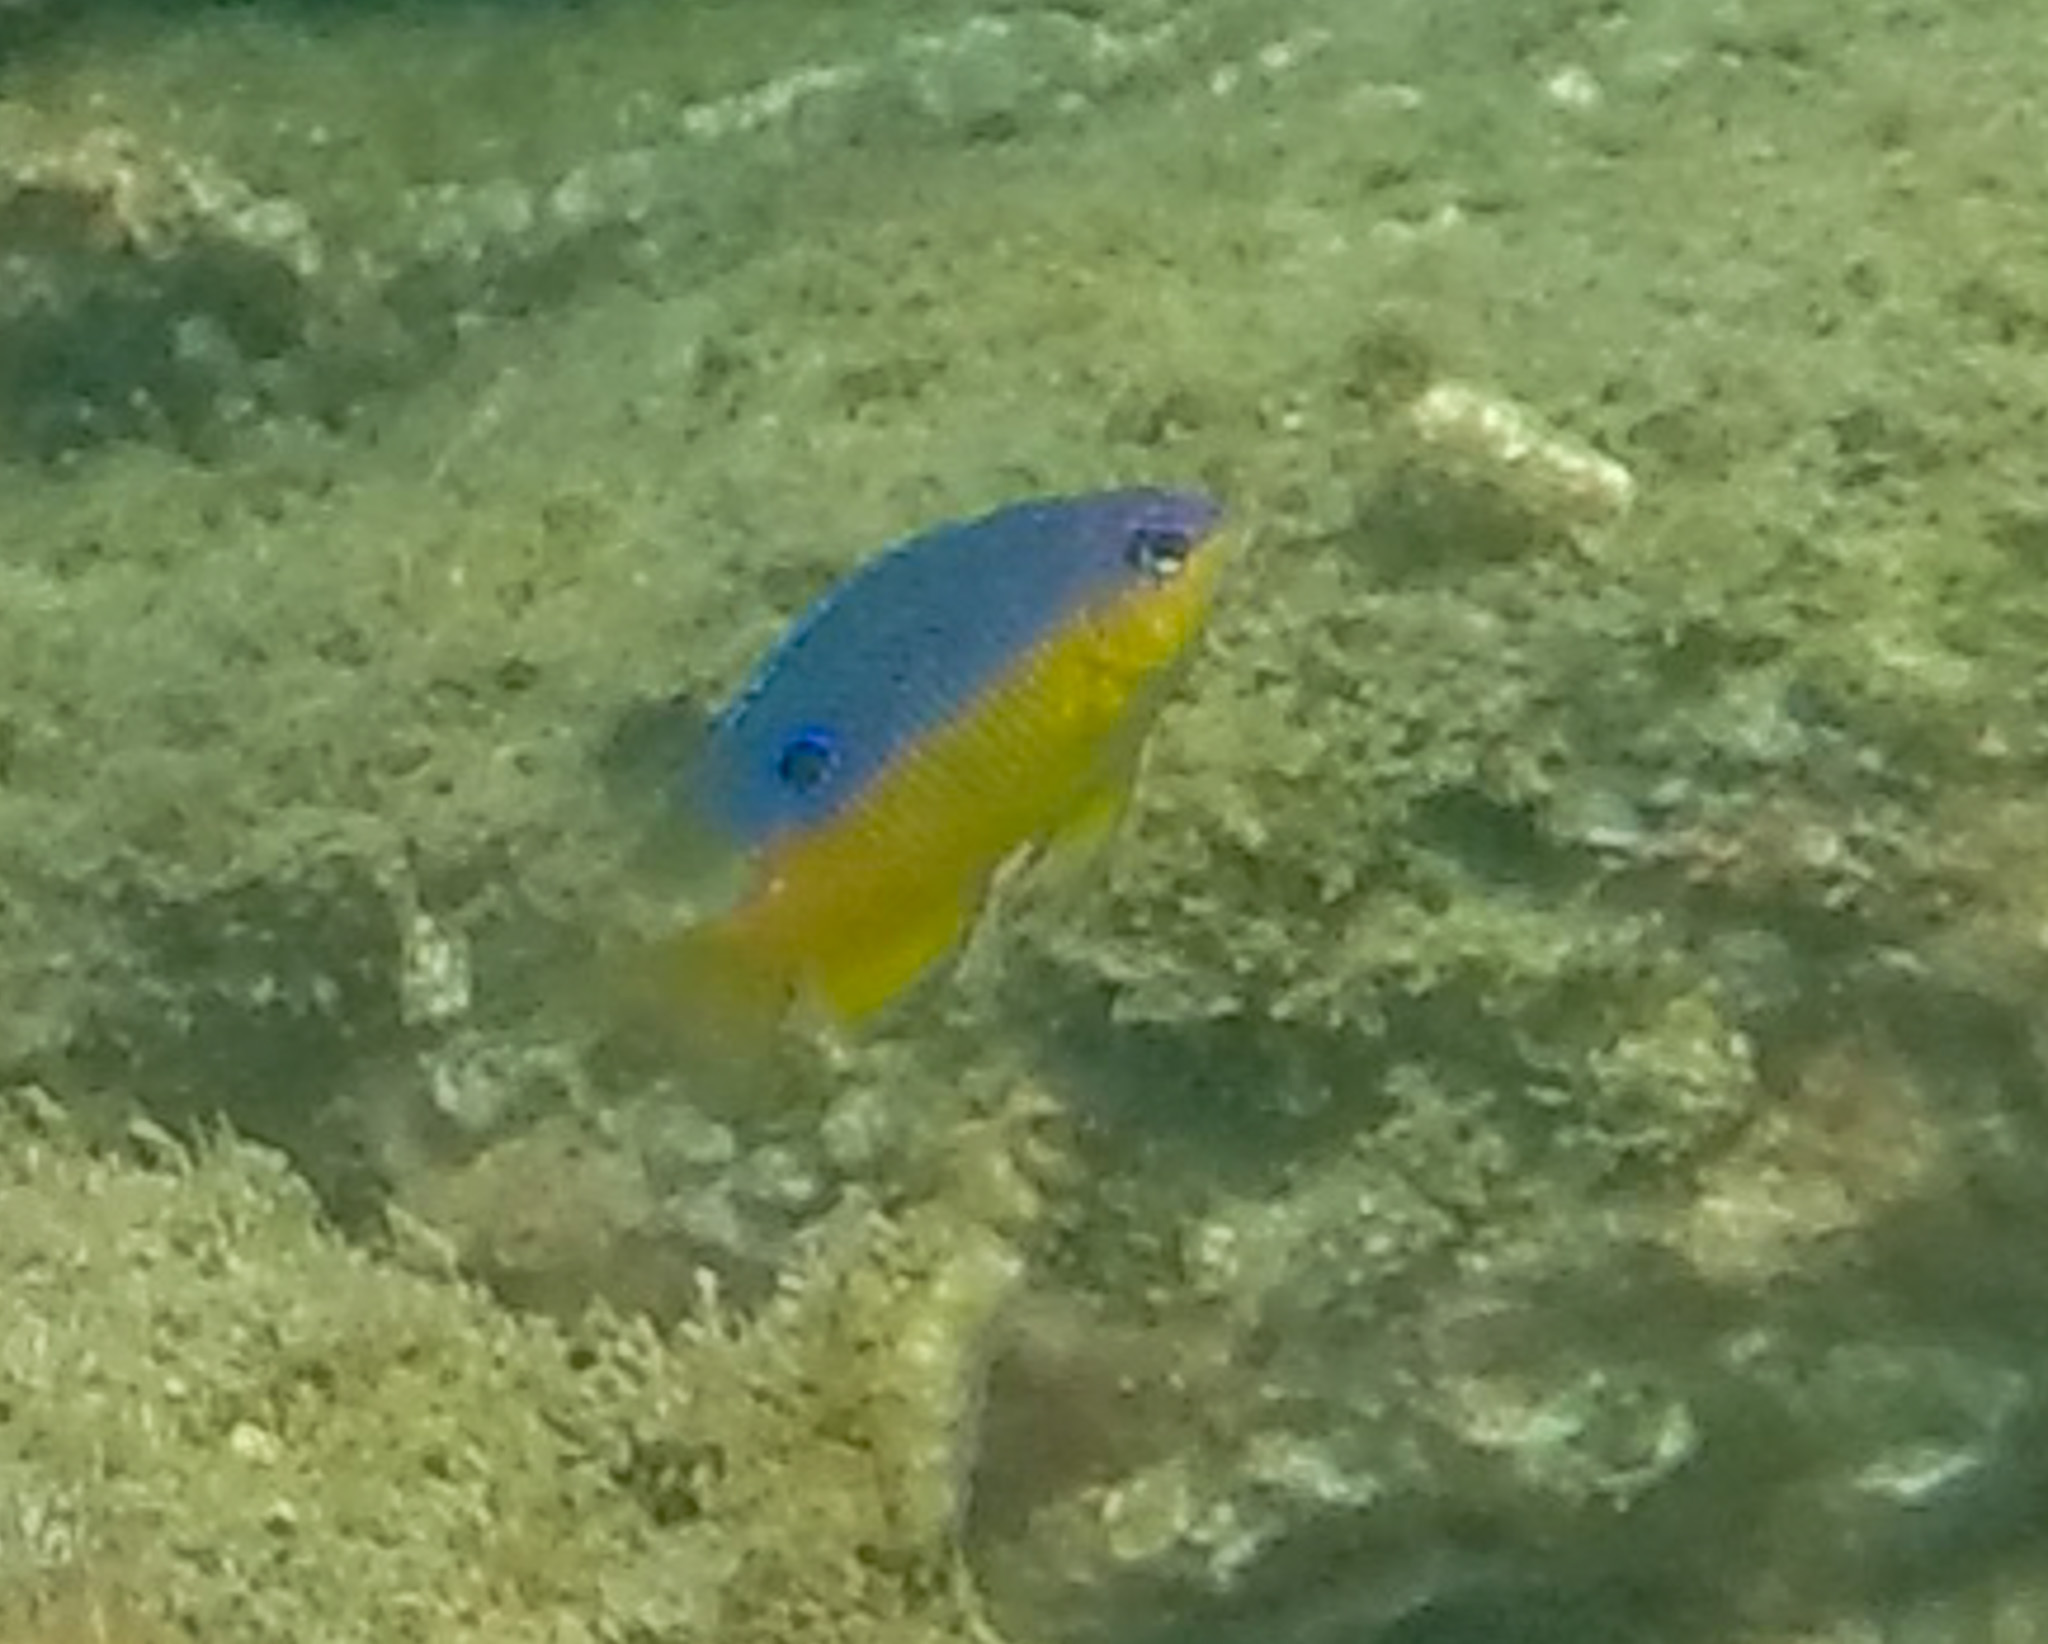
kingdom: Animalia
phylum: Chordata
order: Perciformes
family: Pomacentridae
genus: Stegastes
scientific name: Stegastes flavilatus
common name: Beaubrummel
